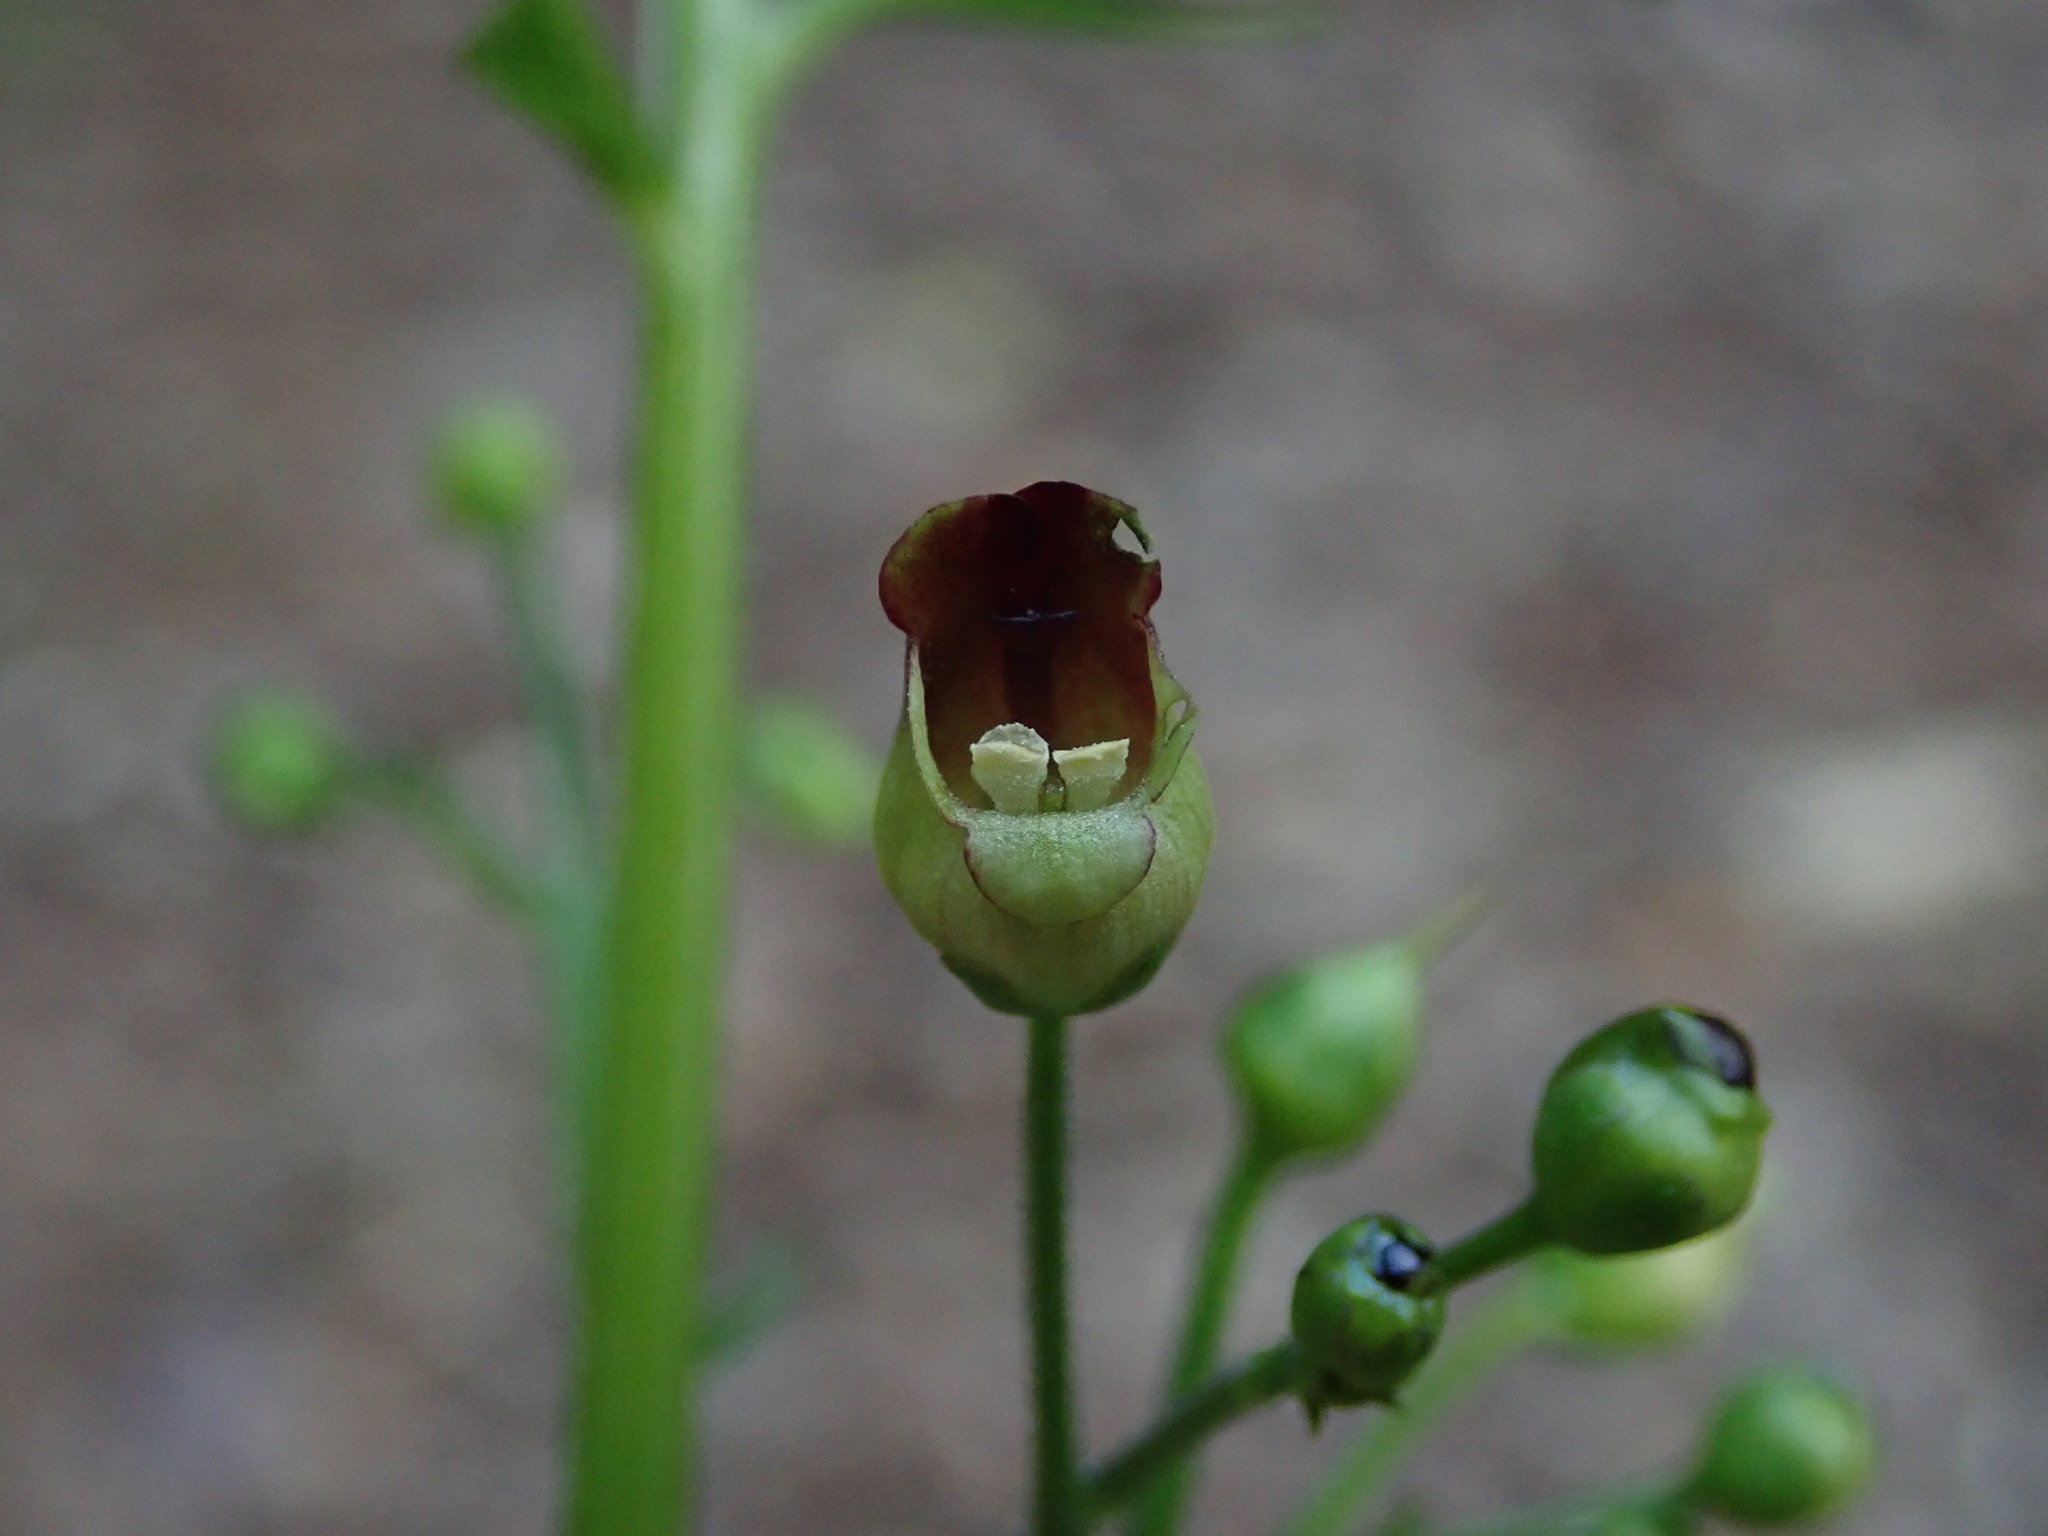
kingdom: Plantae
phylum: Tracheophyta
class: Magnoliopsida
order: Lamiales
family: Scrophulariaceae
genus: Scrophularia
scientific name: Scrophularia nodosa
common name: Common figwort
